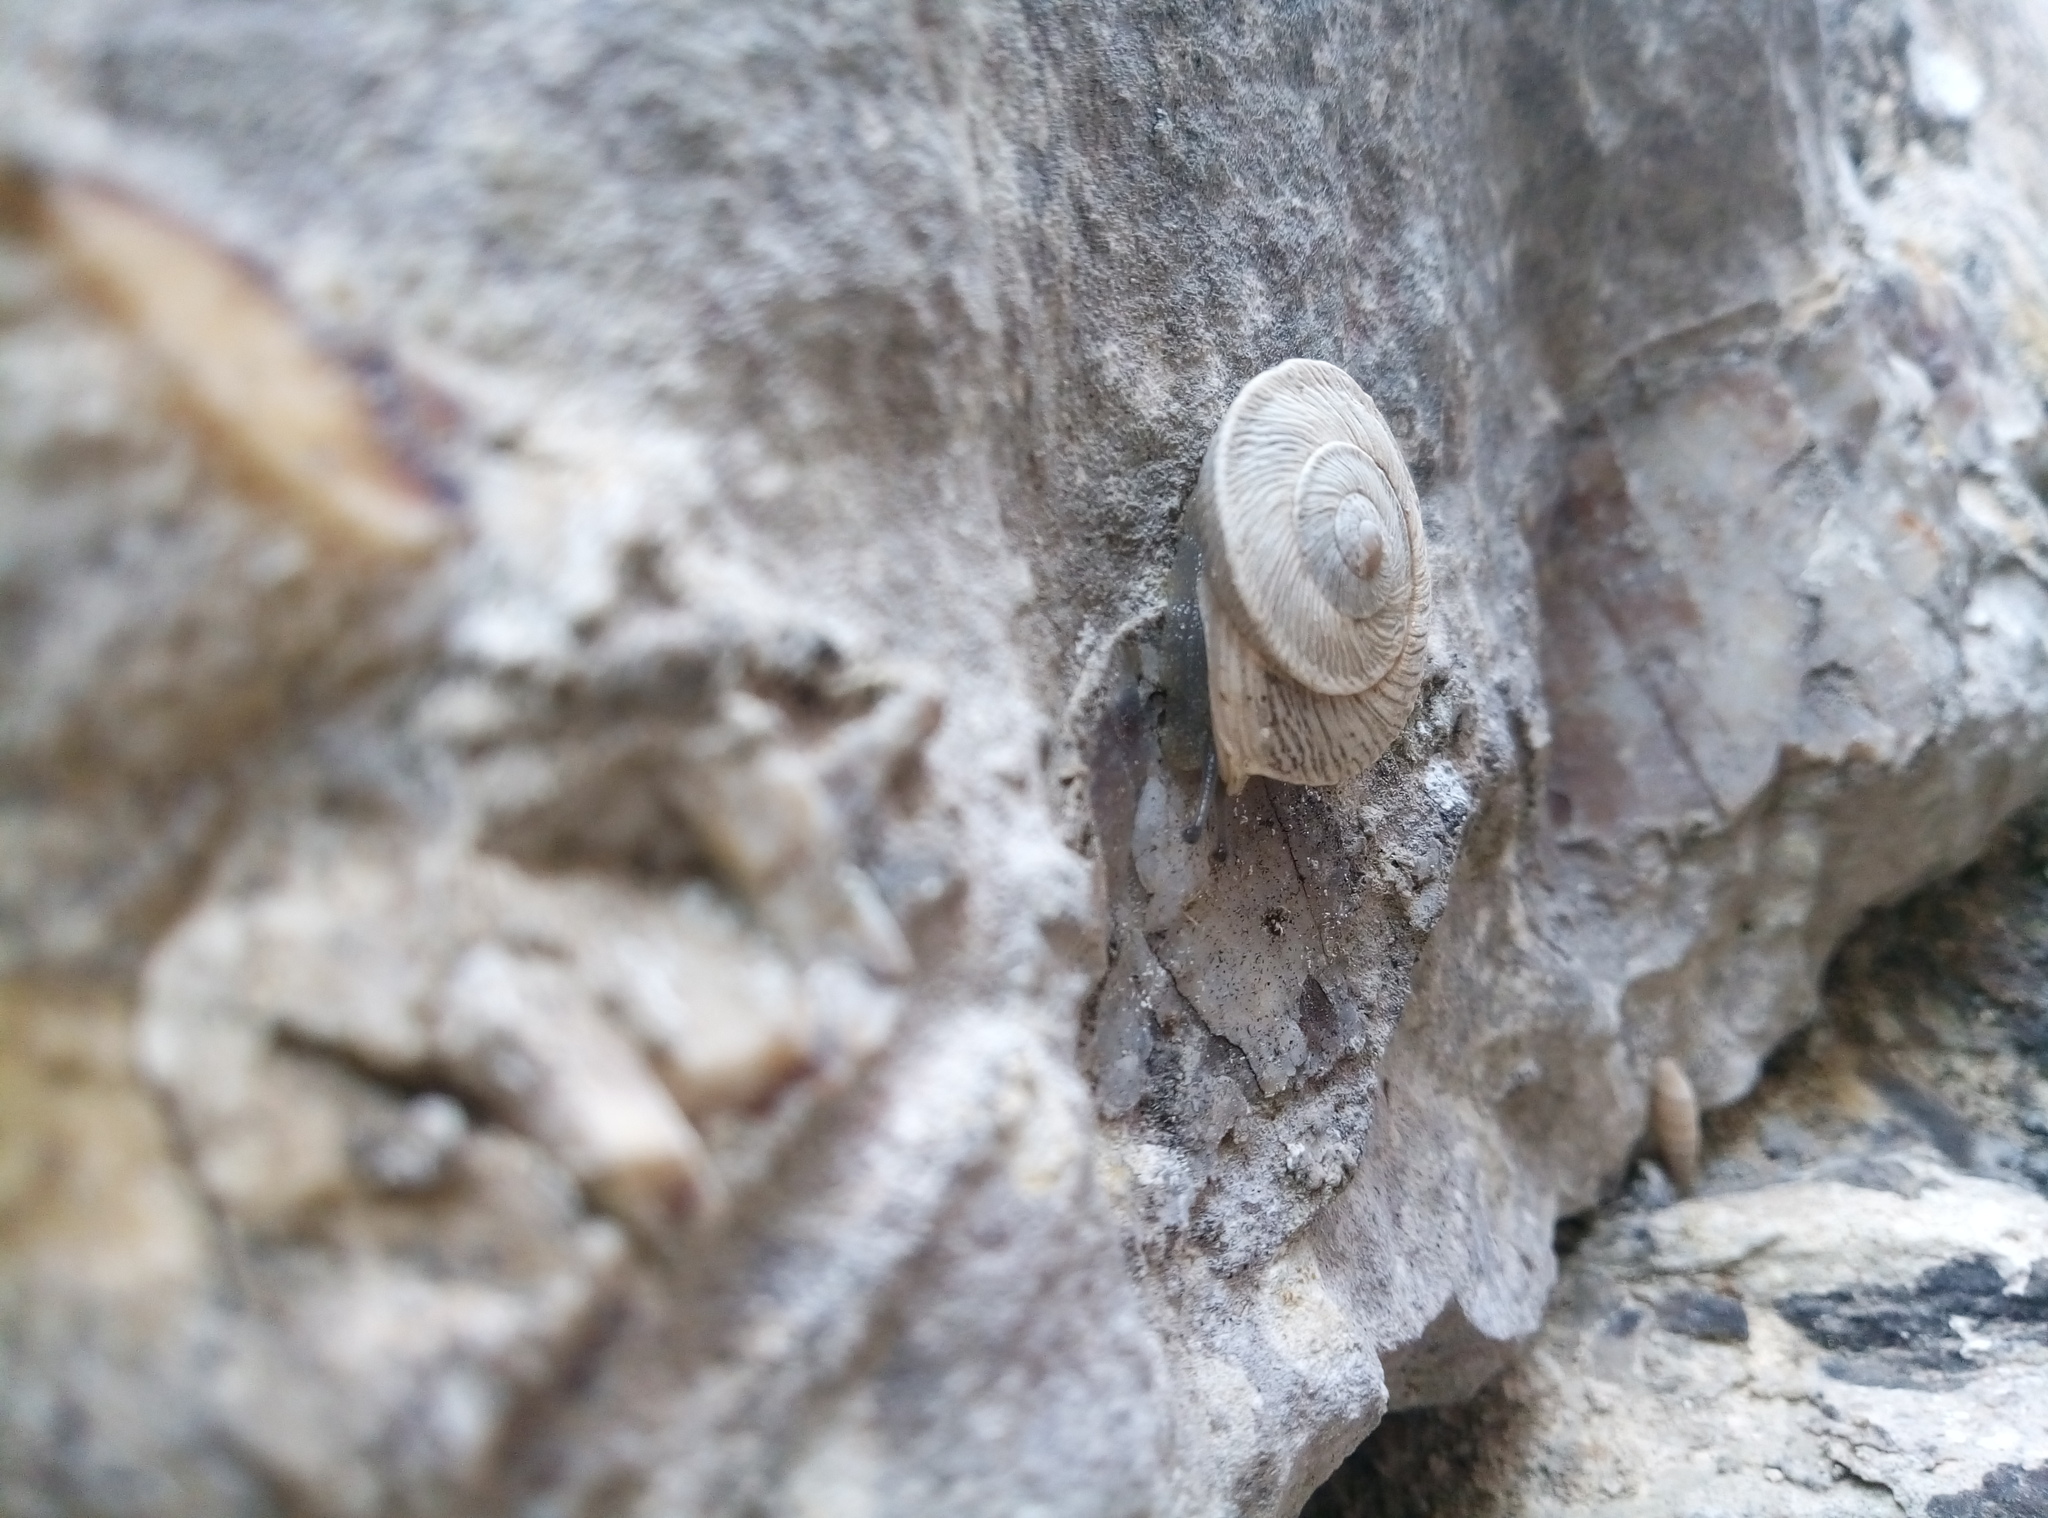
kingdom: Animalia
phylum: Mollusca
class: Gastropoda
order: Stylommatophora
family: Helicidae
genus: Marmorana
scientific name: Marmorana scabriuscula
